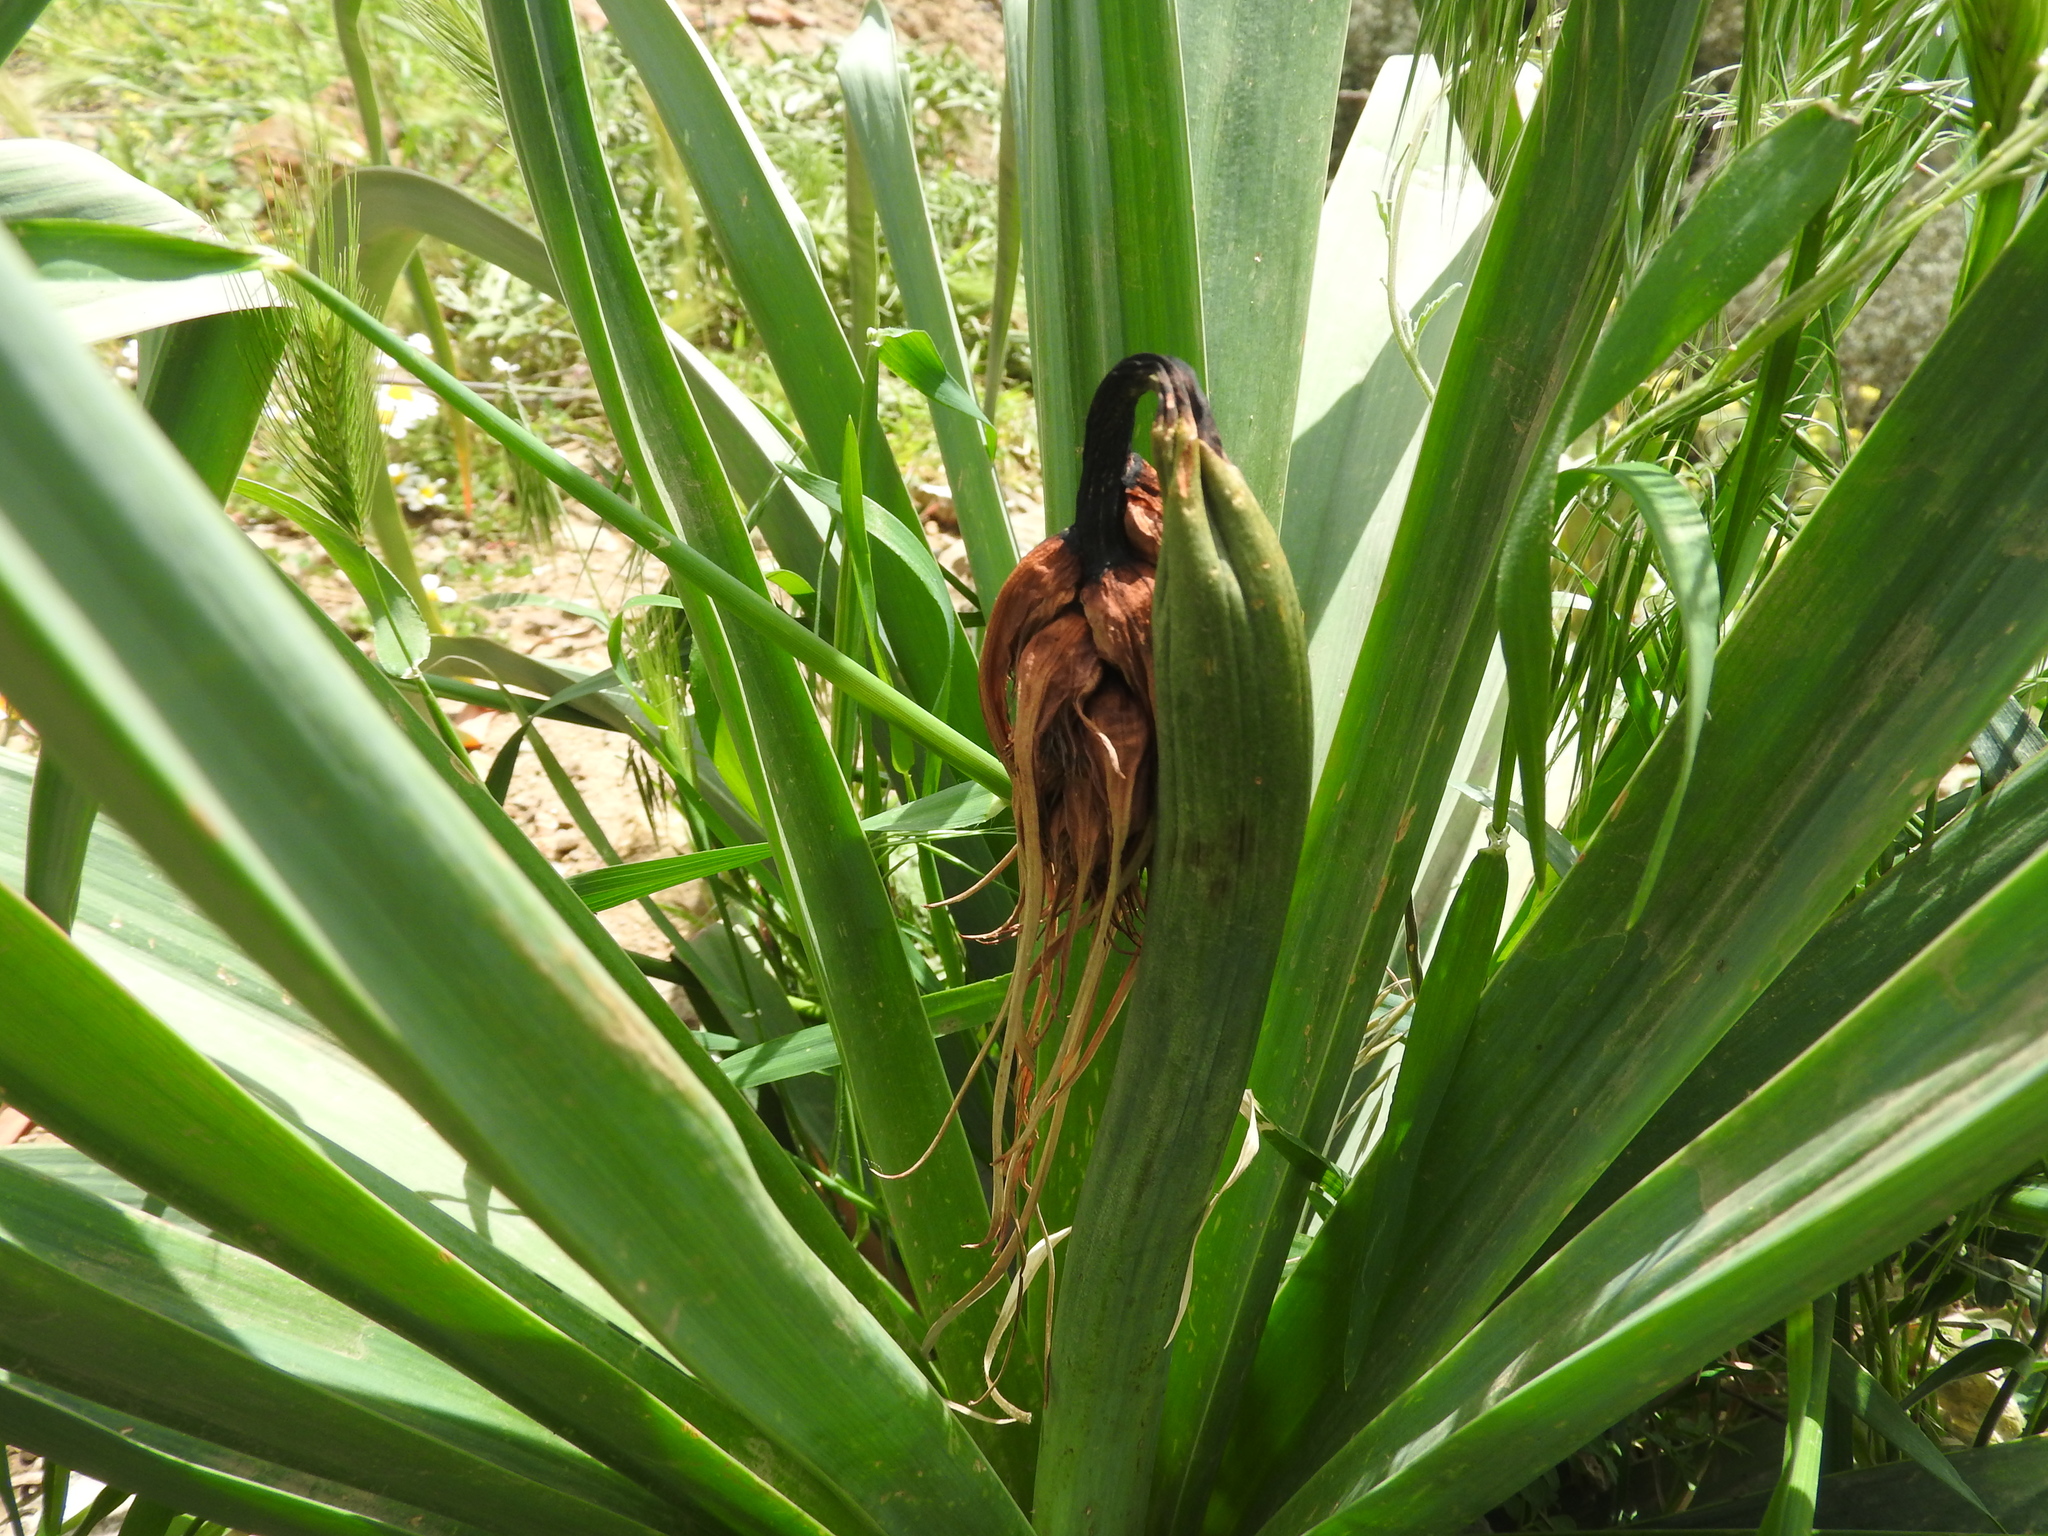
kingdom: Plantae
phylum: Tracheophyta
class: Liliopsida
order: Asparagales
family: Asphodelaceae
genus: Asphodelus
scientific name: Asphodelus ramosus
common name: Silverrod
